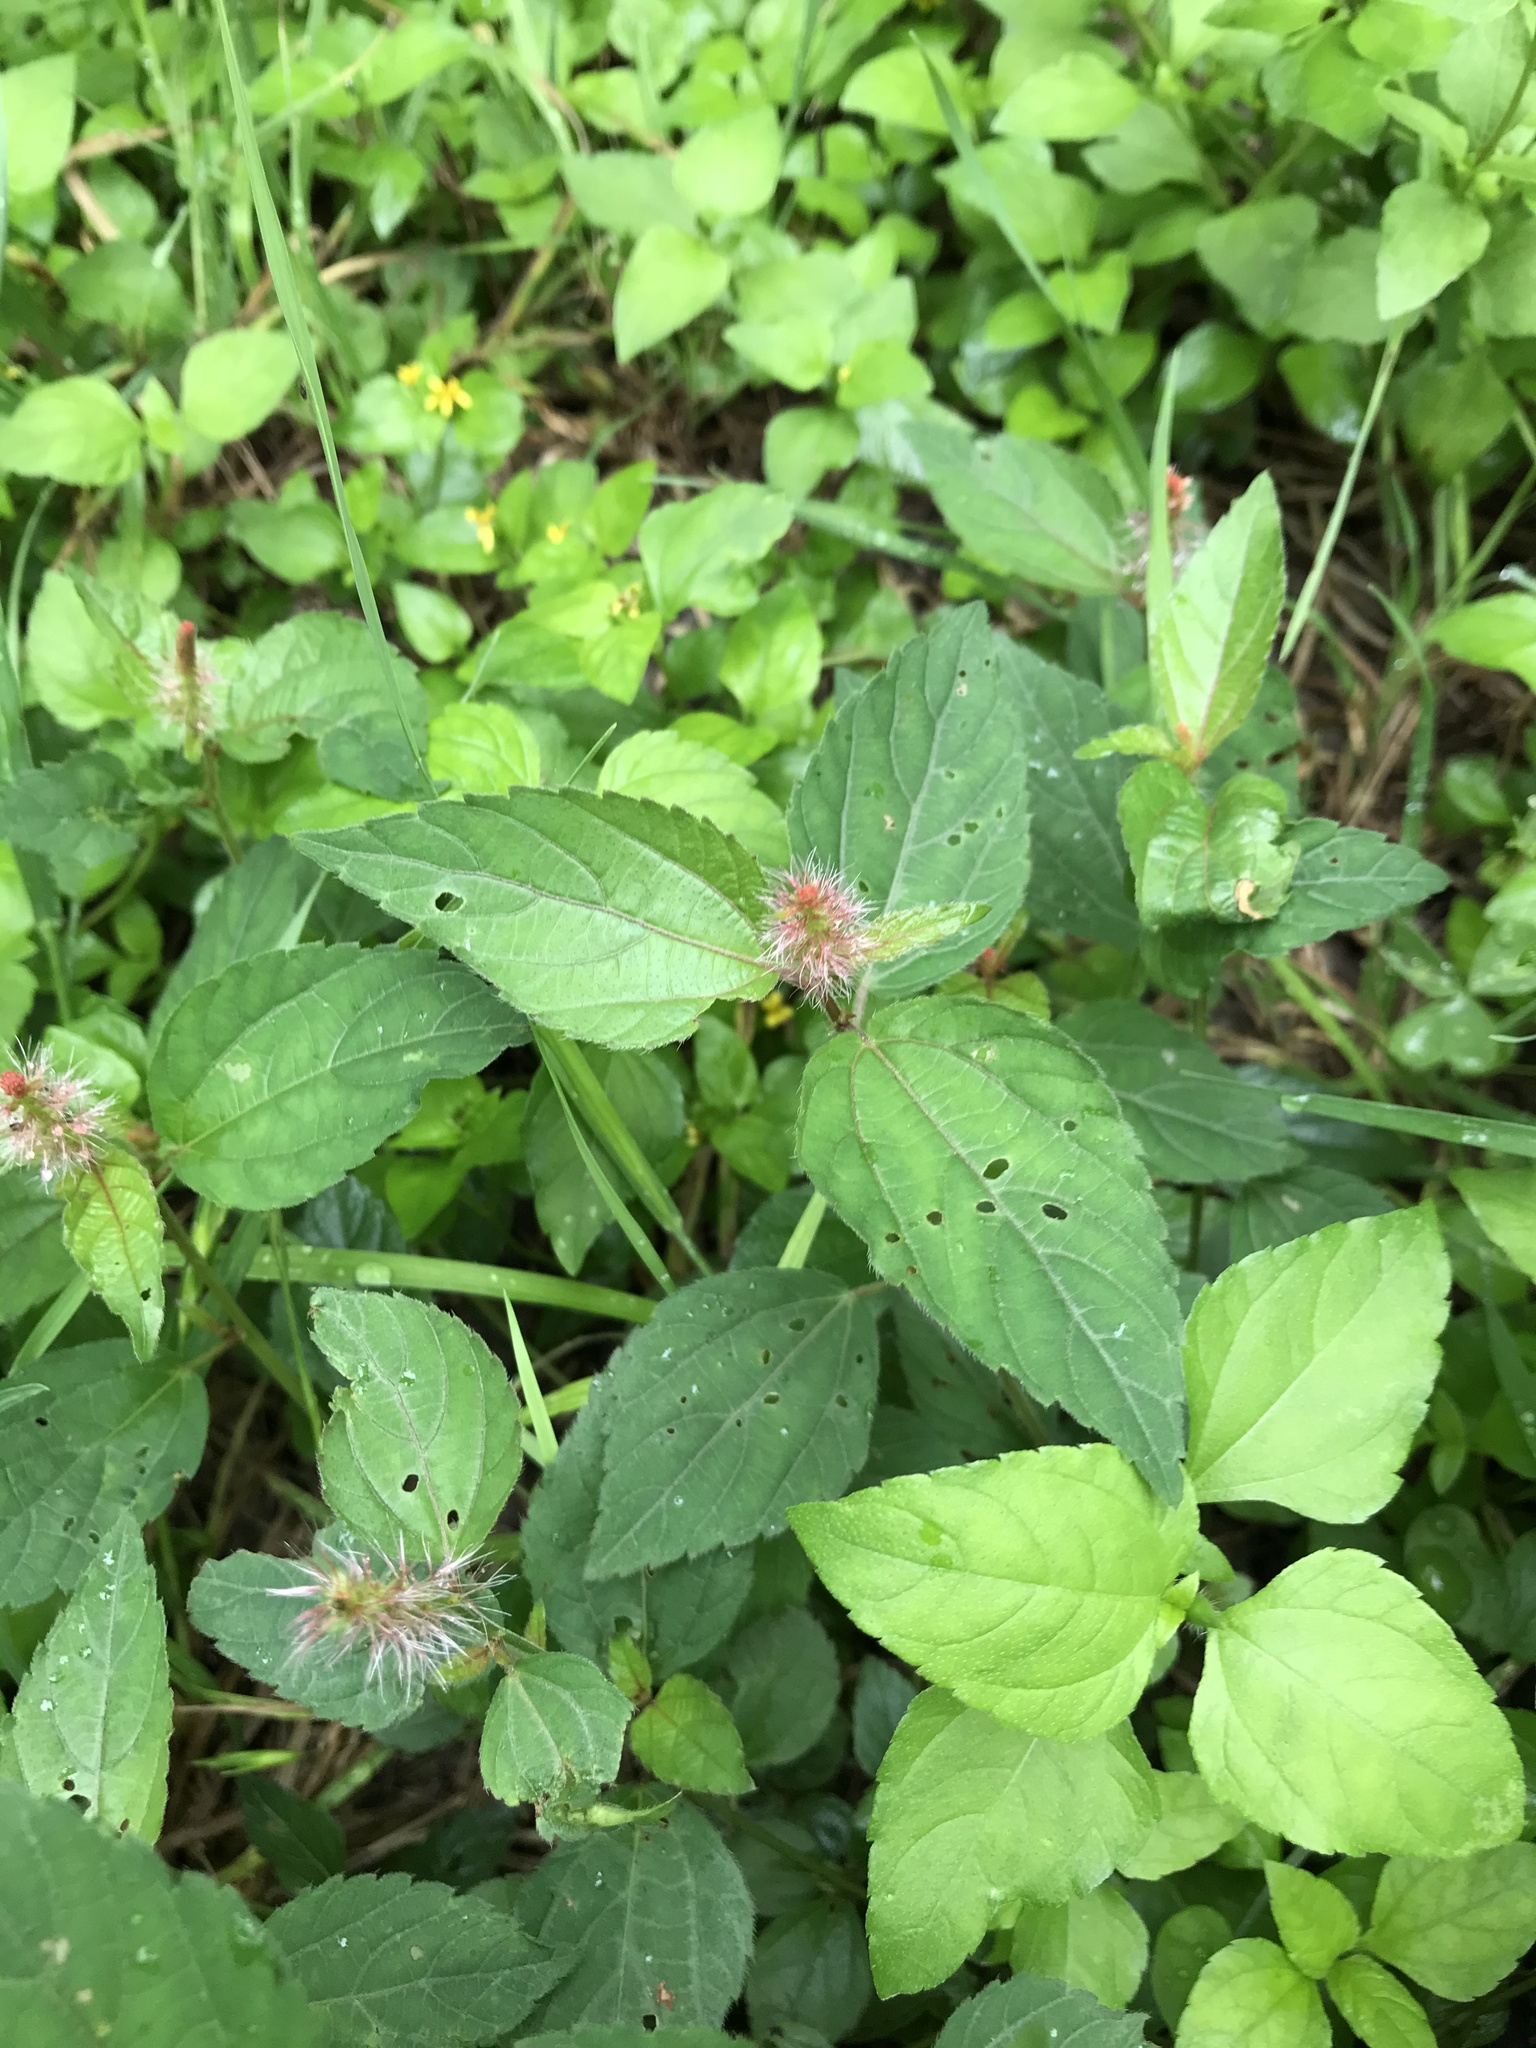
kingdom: Plantae
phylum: Tracheophyta
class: Magnoliopsida
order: Malpighiales
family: Euphorbiaceae
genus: Acalypha
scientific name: Acalypha phleoides
